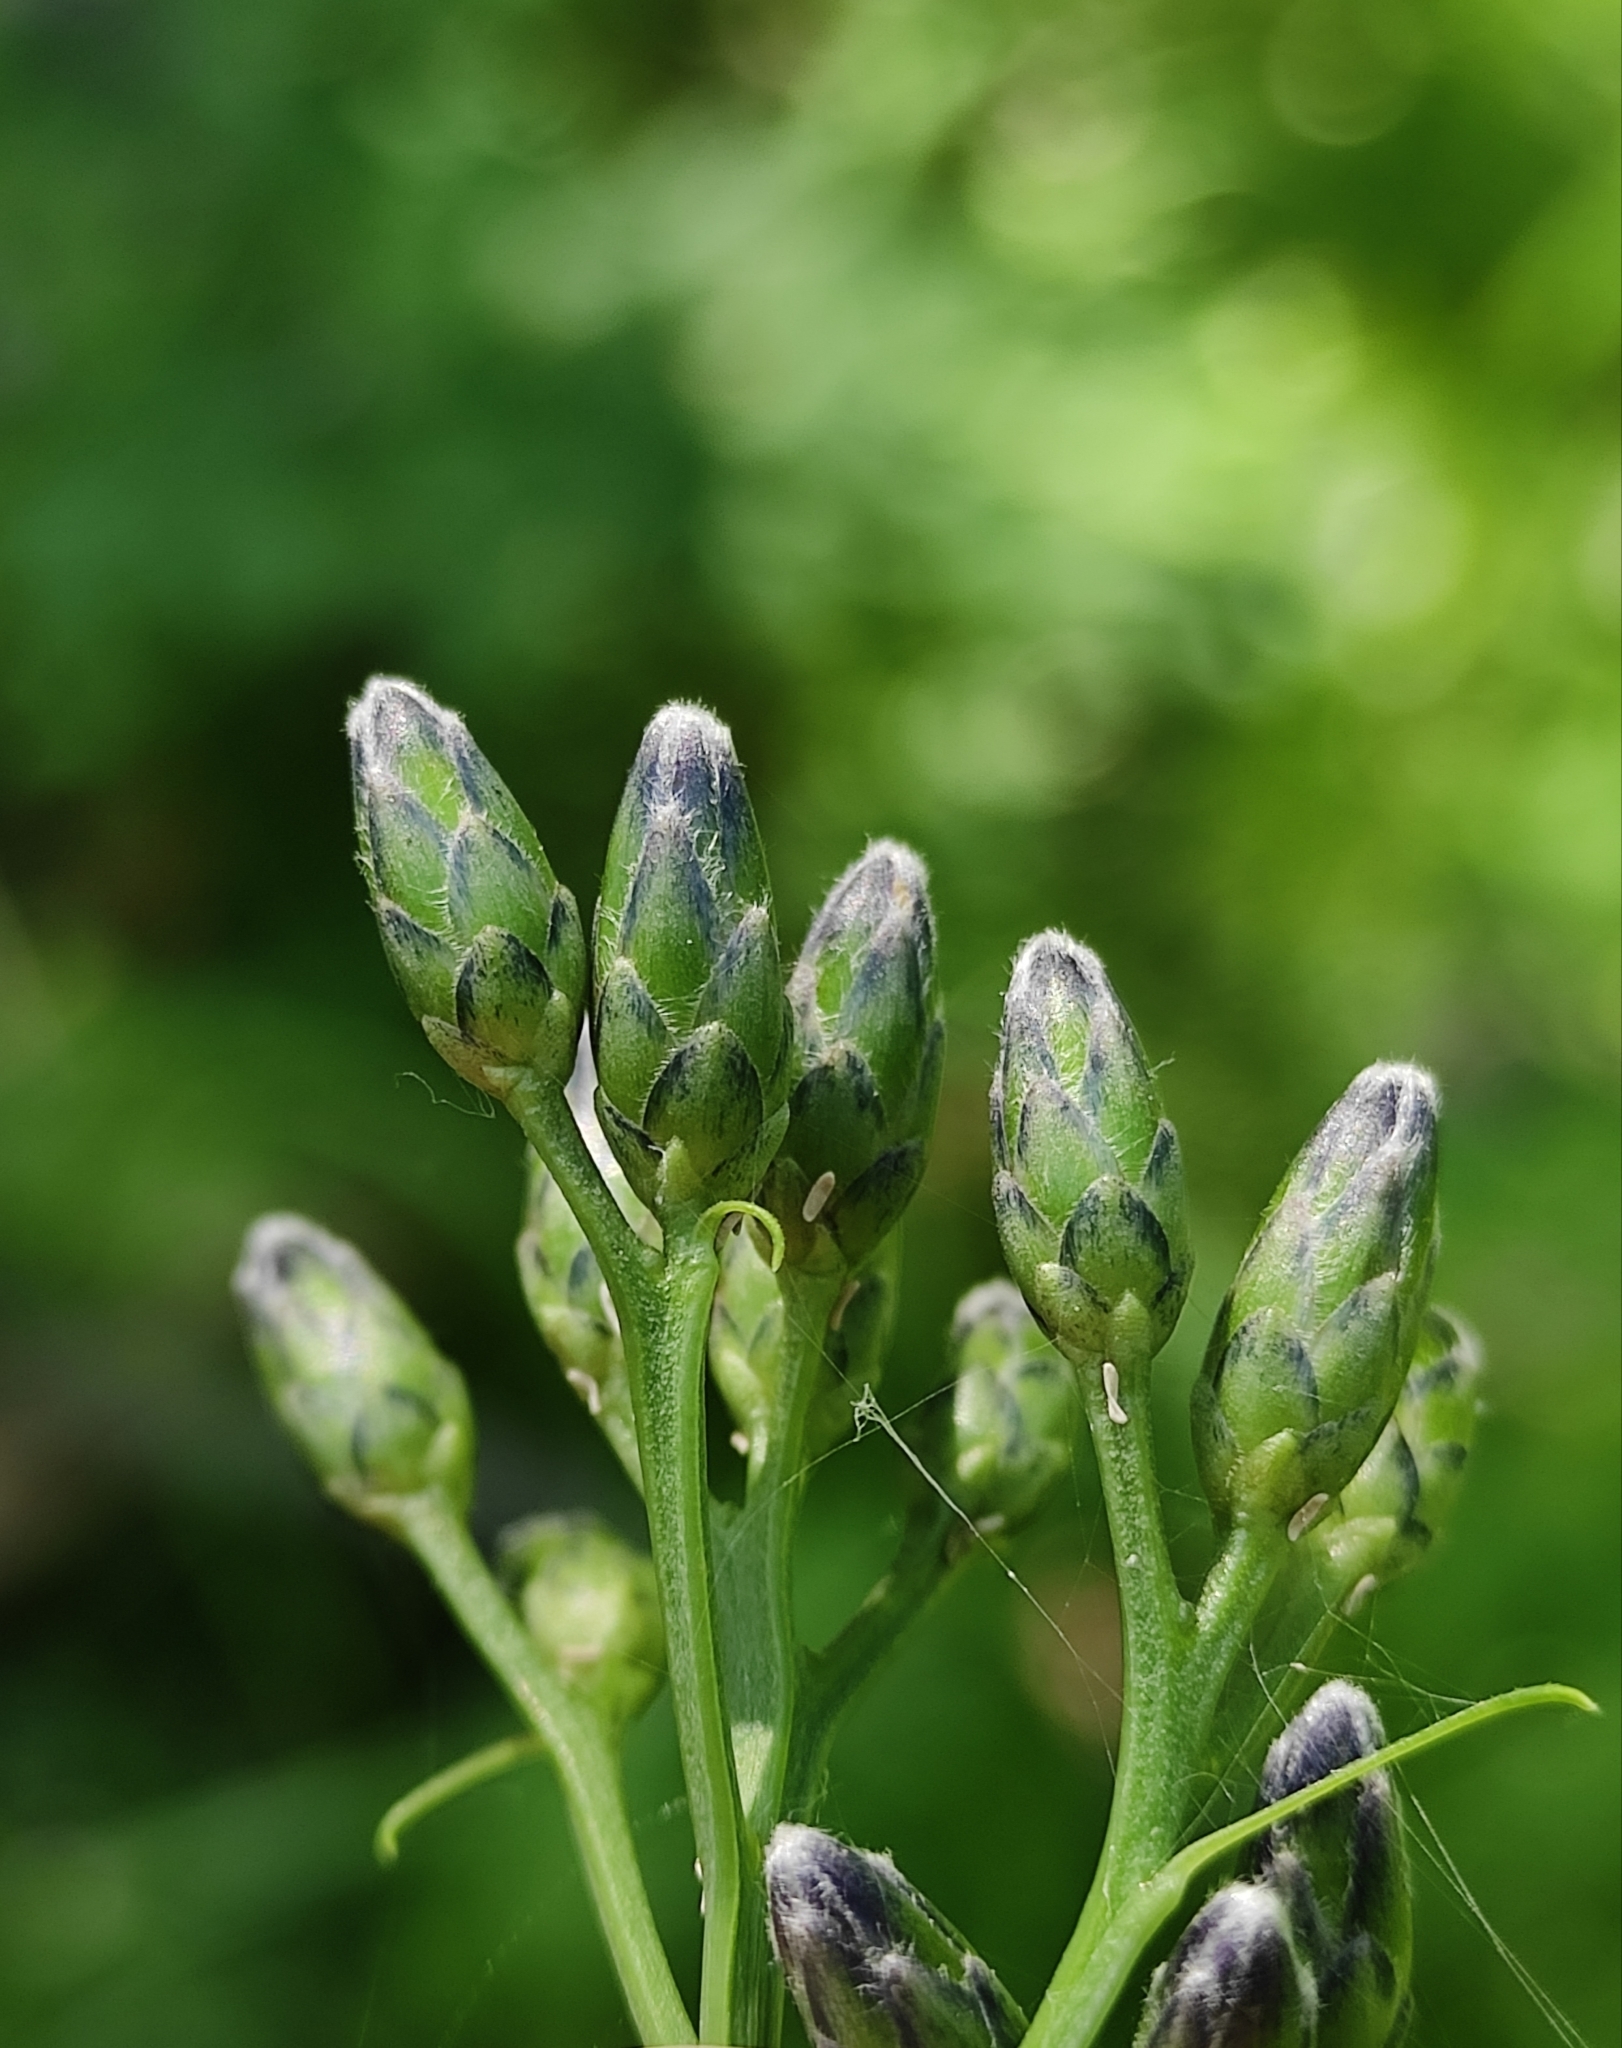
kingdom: Plantae
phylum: Tracheophyta
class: Magnoliopsida
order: Asterales
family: Asteraceae
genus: Saussurea
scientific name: Saussurea parviflora
